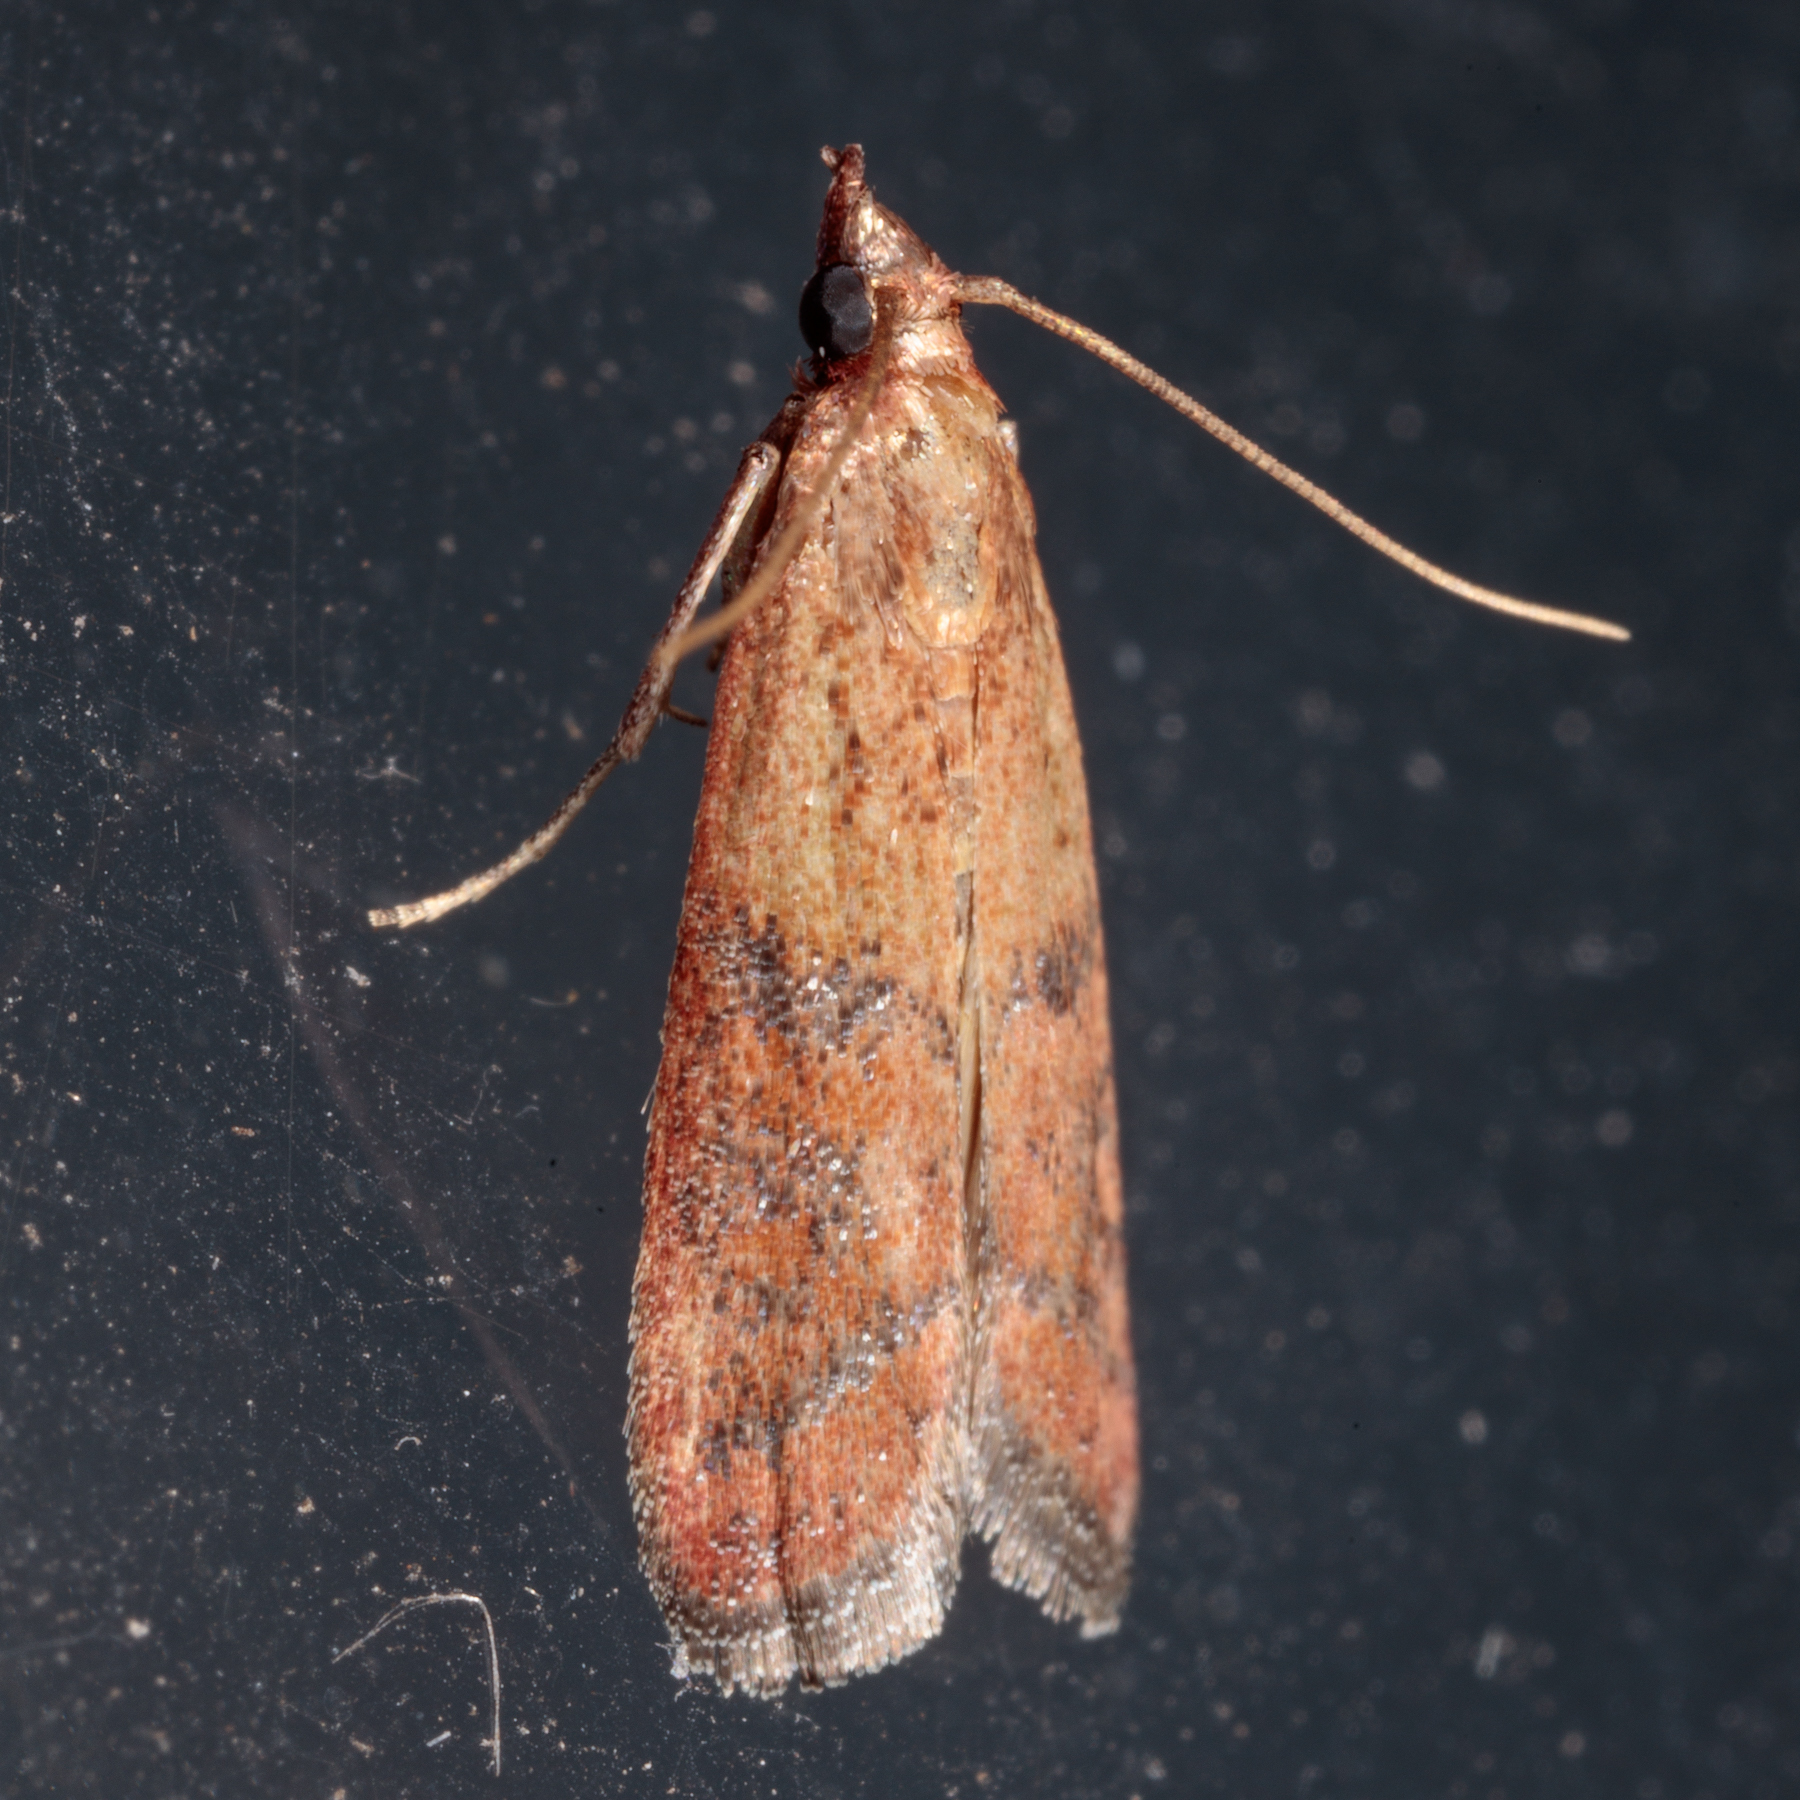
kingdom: Animalia
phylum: Arthropoda
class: Insecta
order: Lepidoptera
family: Pyralidae
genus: Plodia
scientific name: Plodia interpunctella
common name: Indian meal moth
